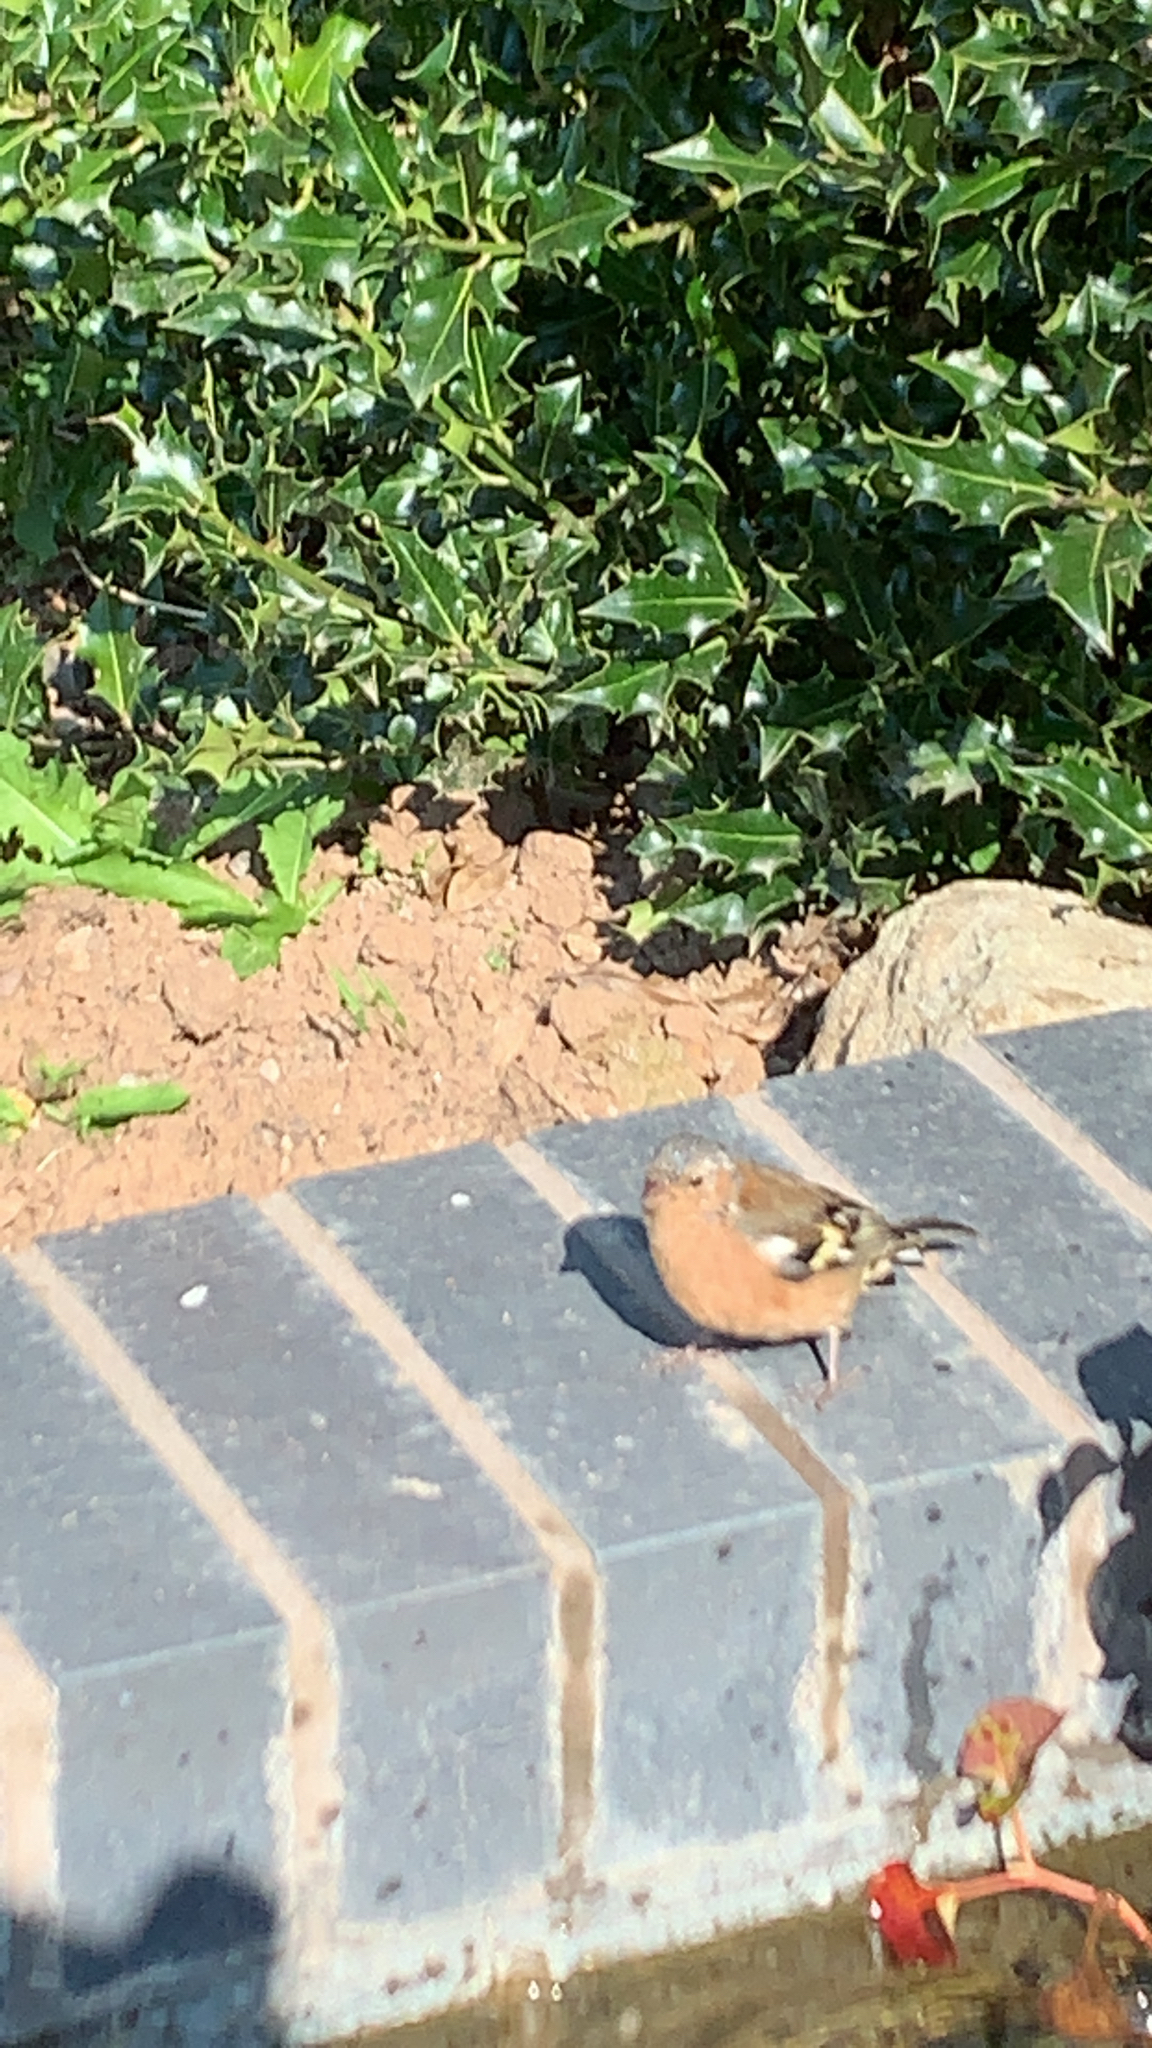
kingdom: Animalia
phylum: Chordata
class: Aves
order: Passeriformes
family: Fringillidae
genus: Fringilla
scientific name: Fringilla coelebs
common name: Common chaffinch
